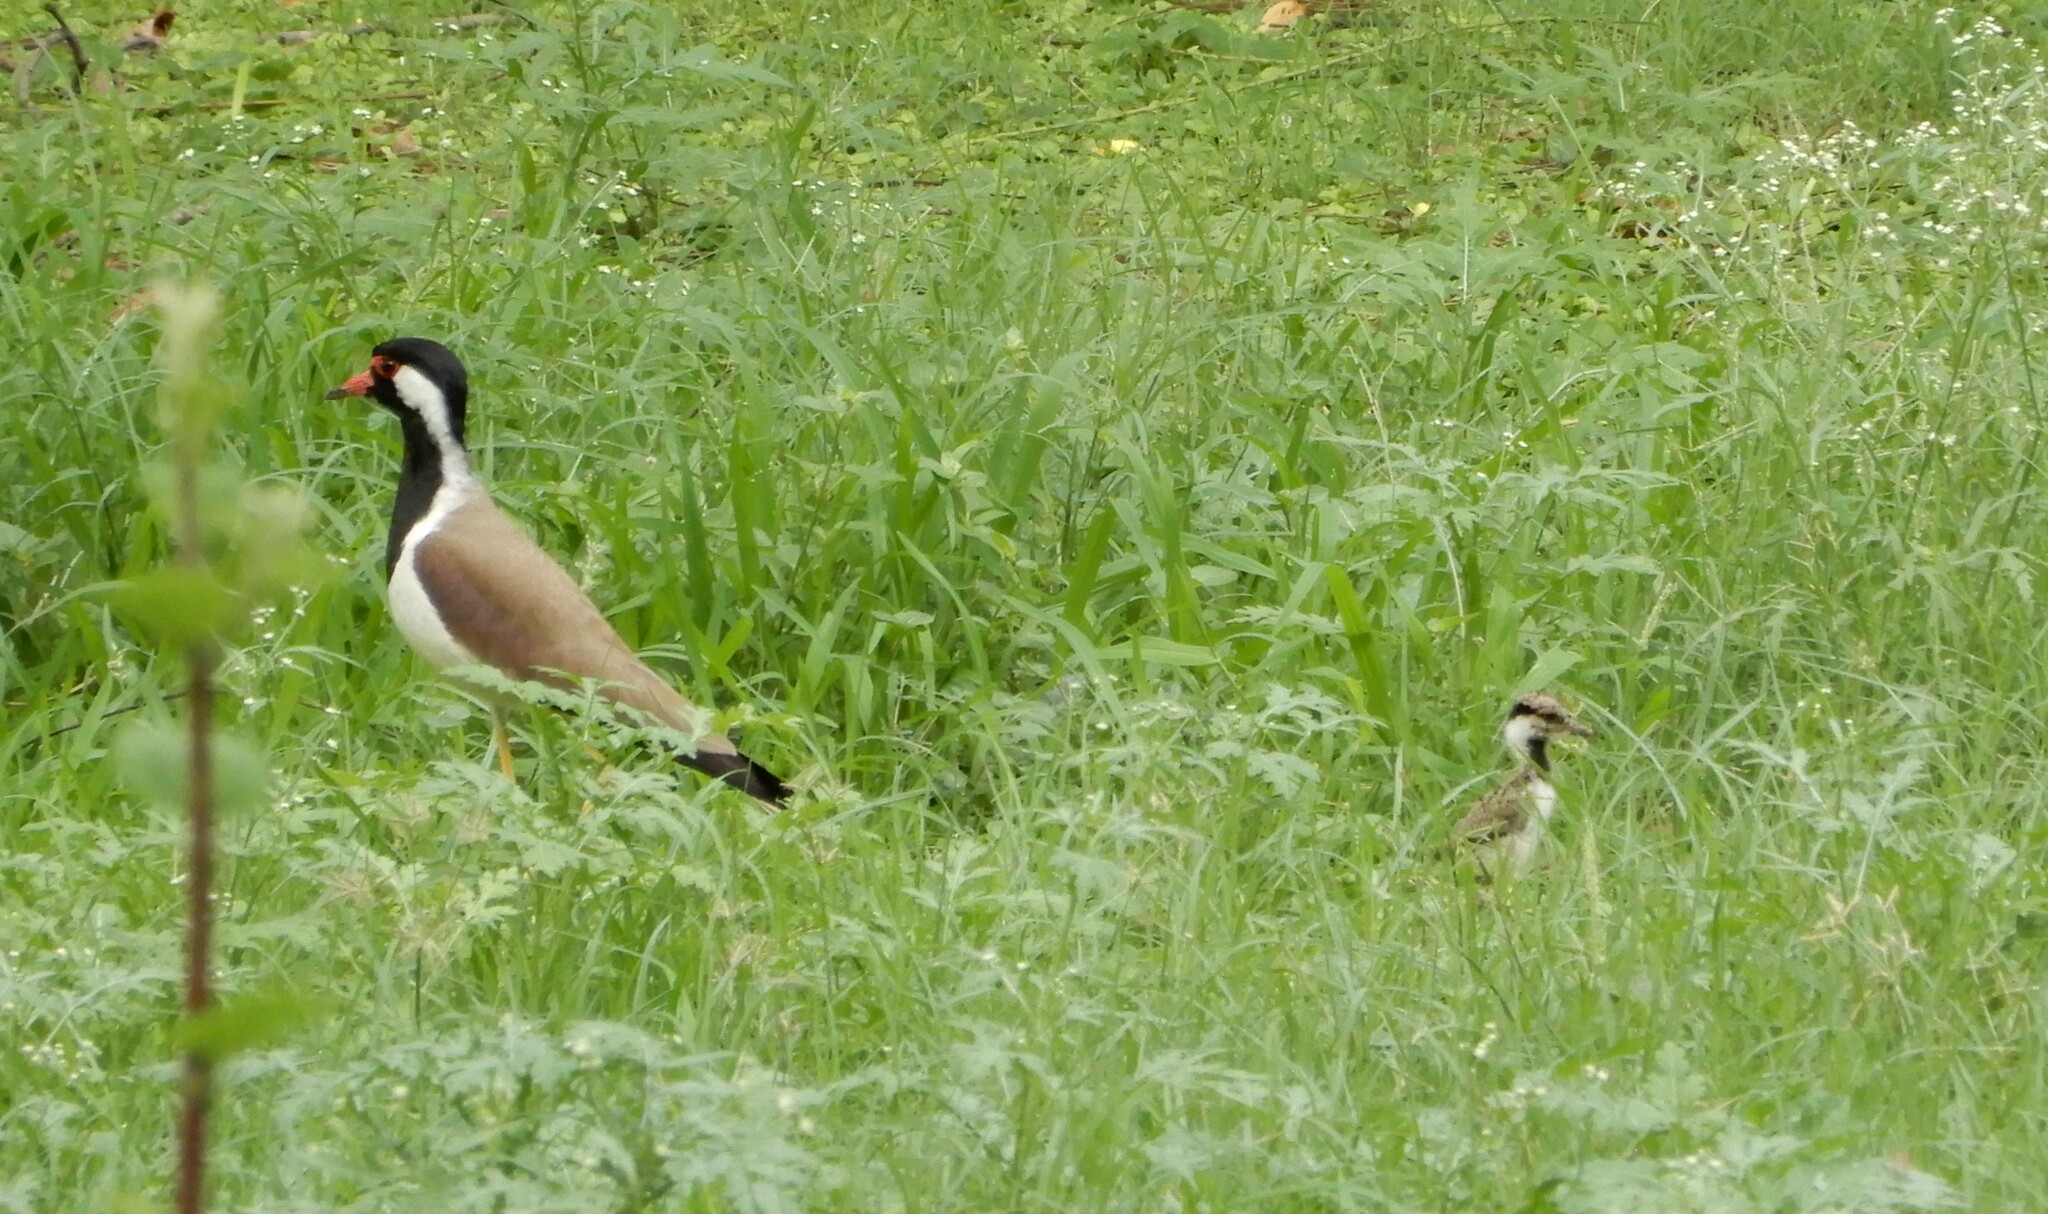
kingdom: Animalia
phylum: Chordata
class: Aves
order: Charadriiformes
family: Charadriidae
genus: Vanellus
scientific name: Vanellus indicus
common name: Red-wattled lapwing
